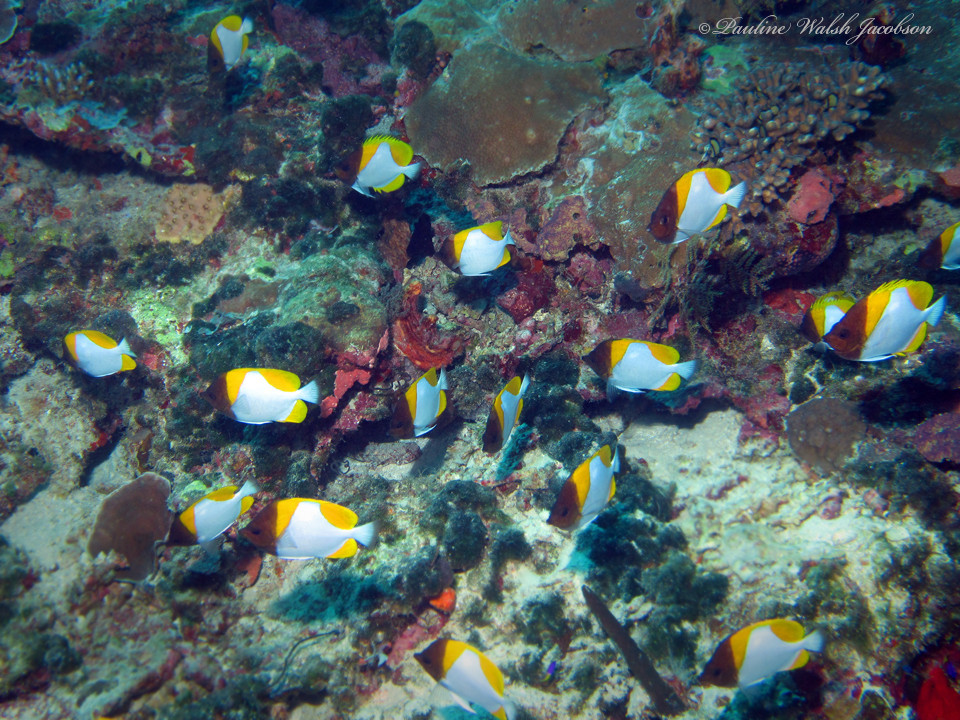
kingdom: Animalia
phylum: Chordata
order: Perciformes
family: Chaetodontidae
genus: Hemitaurichthys
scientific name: Hemitaurichthys polylepis
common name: Brushytoothed butterflyfish
